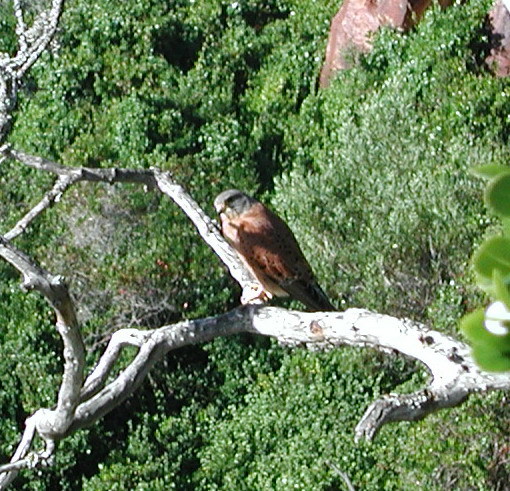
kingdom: Animalia
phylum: Chordata
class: Aves
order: Falconiformes
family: Falconidae
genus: Falco
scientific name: Falco rupicolus
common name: Rock kestrel
